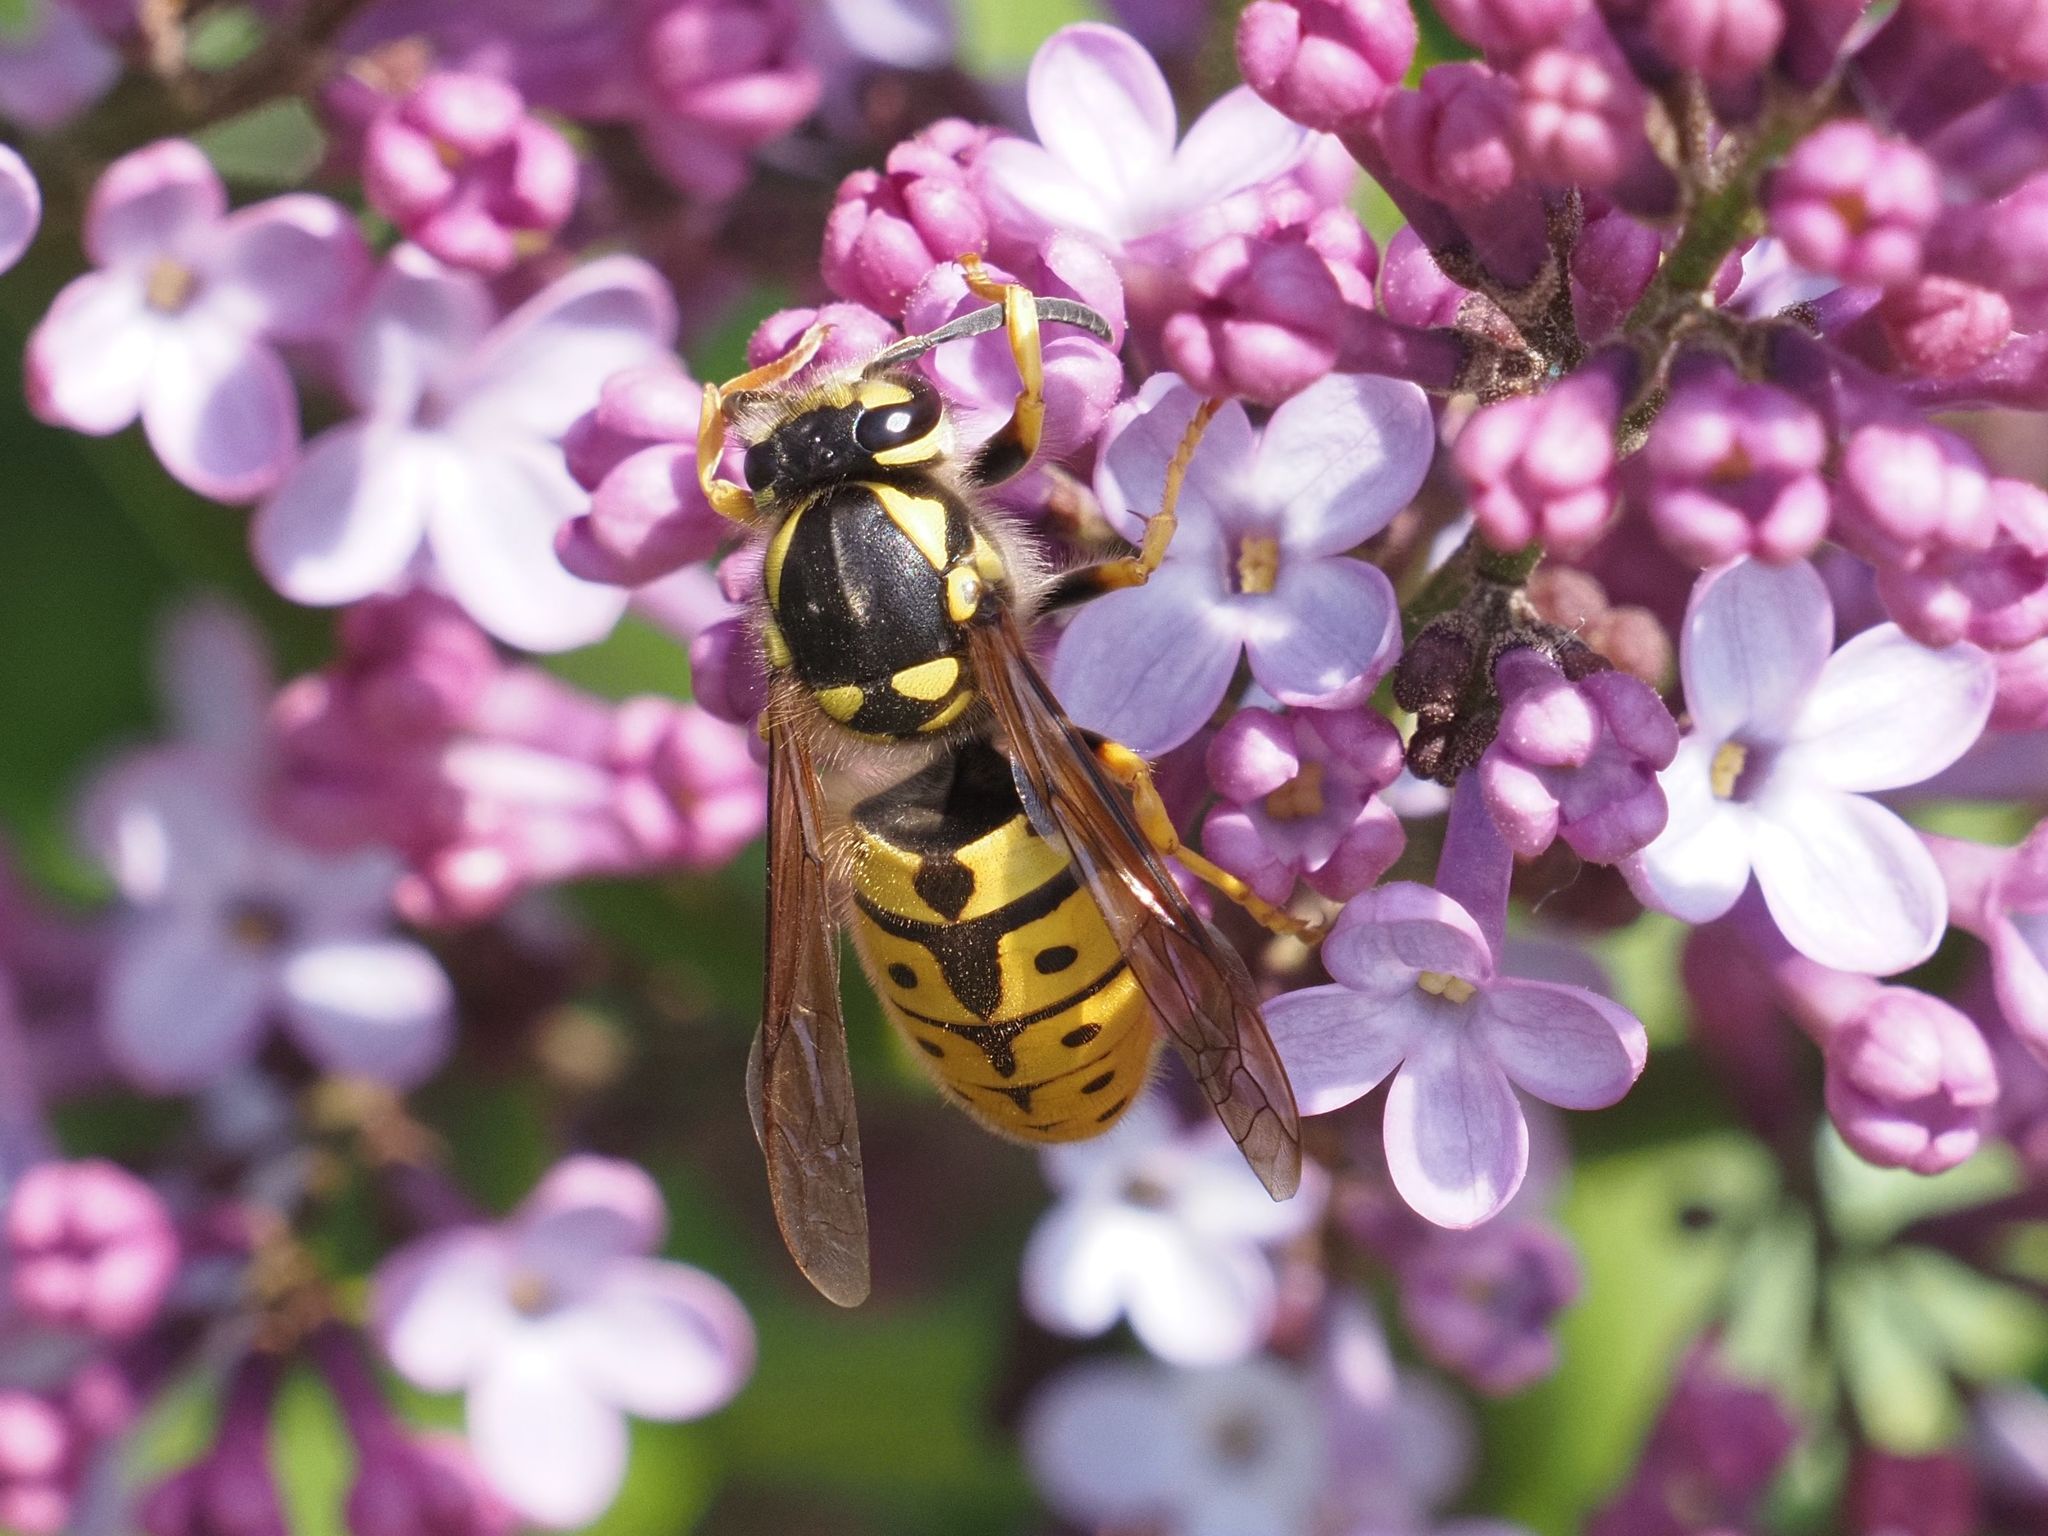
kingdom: Animalia
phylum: Arthropoda
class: Insecta
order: Hymenoptera
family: Vespidae
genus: Vespula
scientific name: Vespula germanica
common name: German wasp
